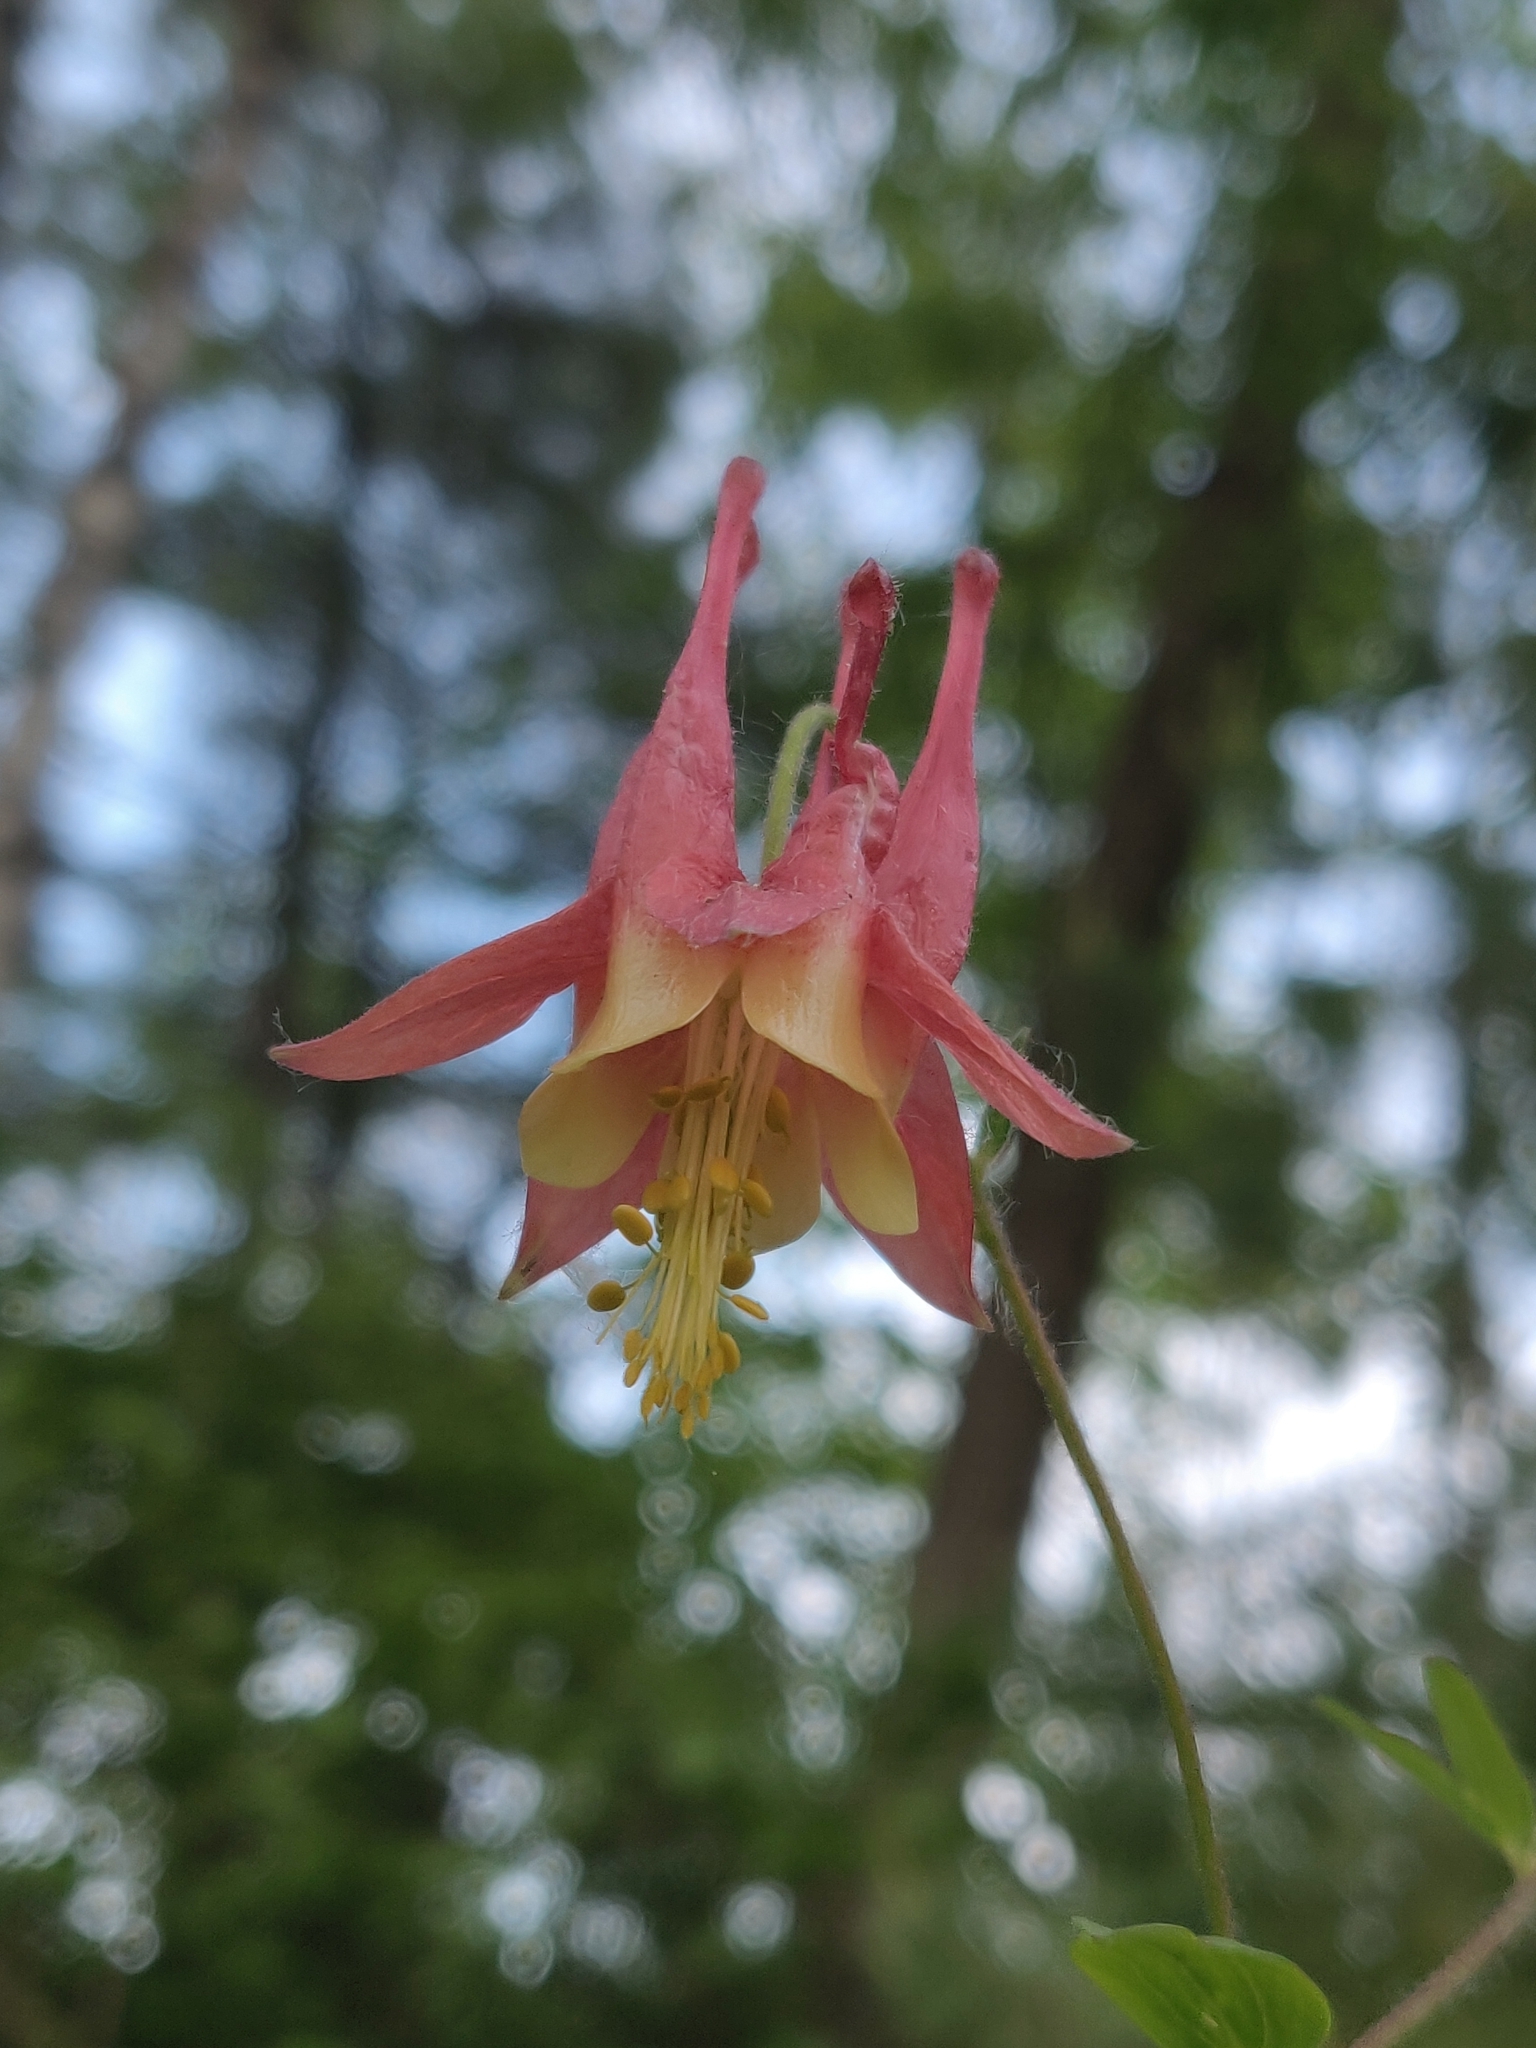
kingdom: Plantae
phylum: Tracheophyta
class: Magnoliopsida
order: Ranunculales
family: Ranunculaceae
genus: Aquilegia
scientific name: Aquilegia canadensis
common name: American columbine
